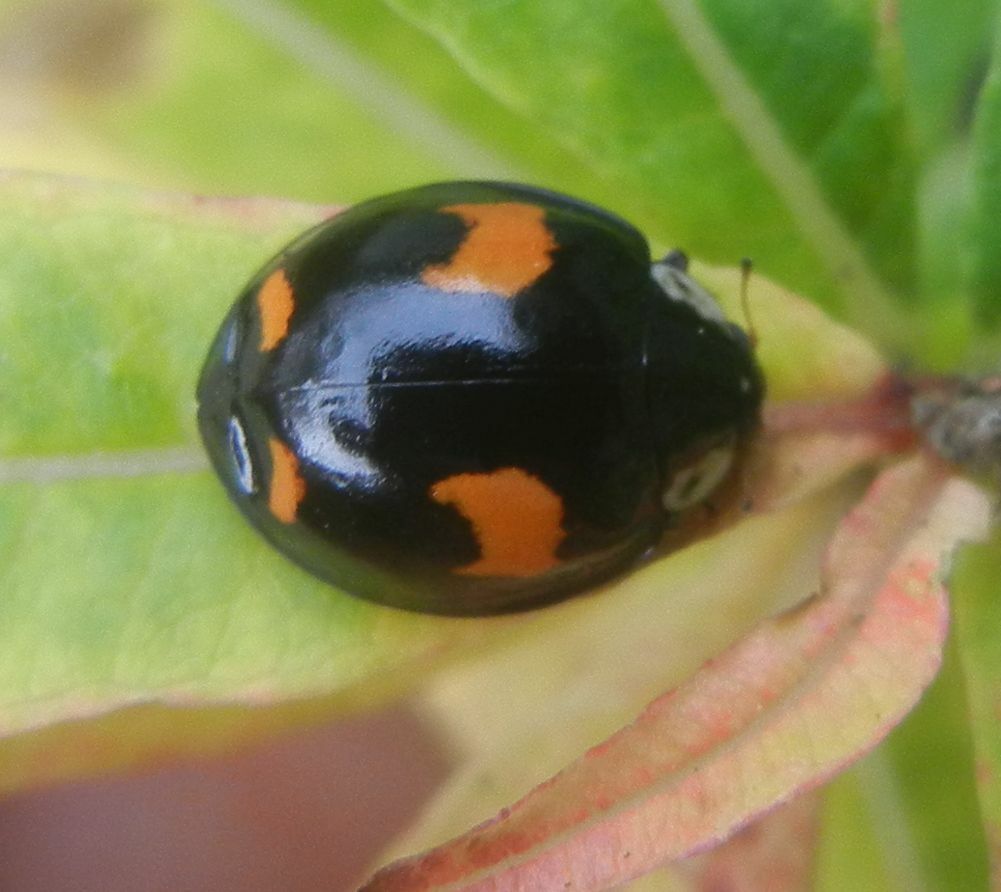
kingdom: Animalia
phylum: Arthropoda
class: Insecta
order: Coleoptera
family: Coccinellidae
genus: Harmonia
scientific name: Harmonia axyridis
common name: Harlequin ladybird
